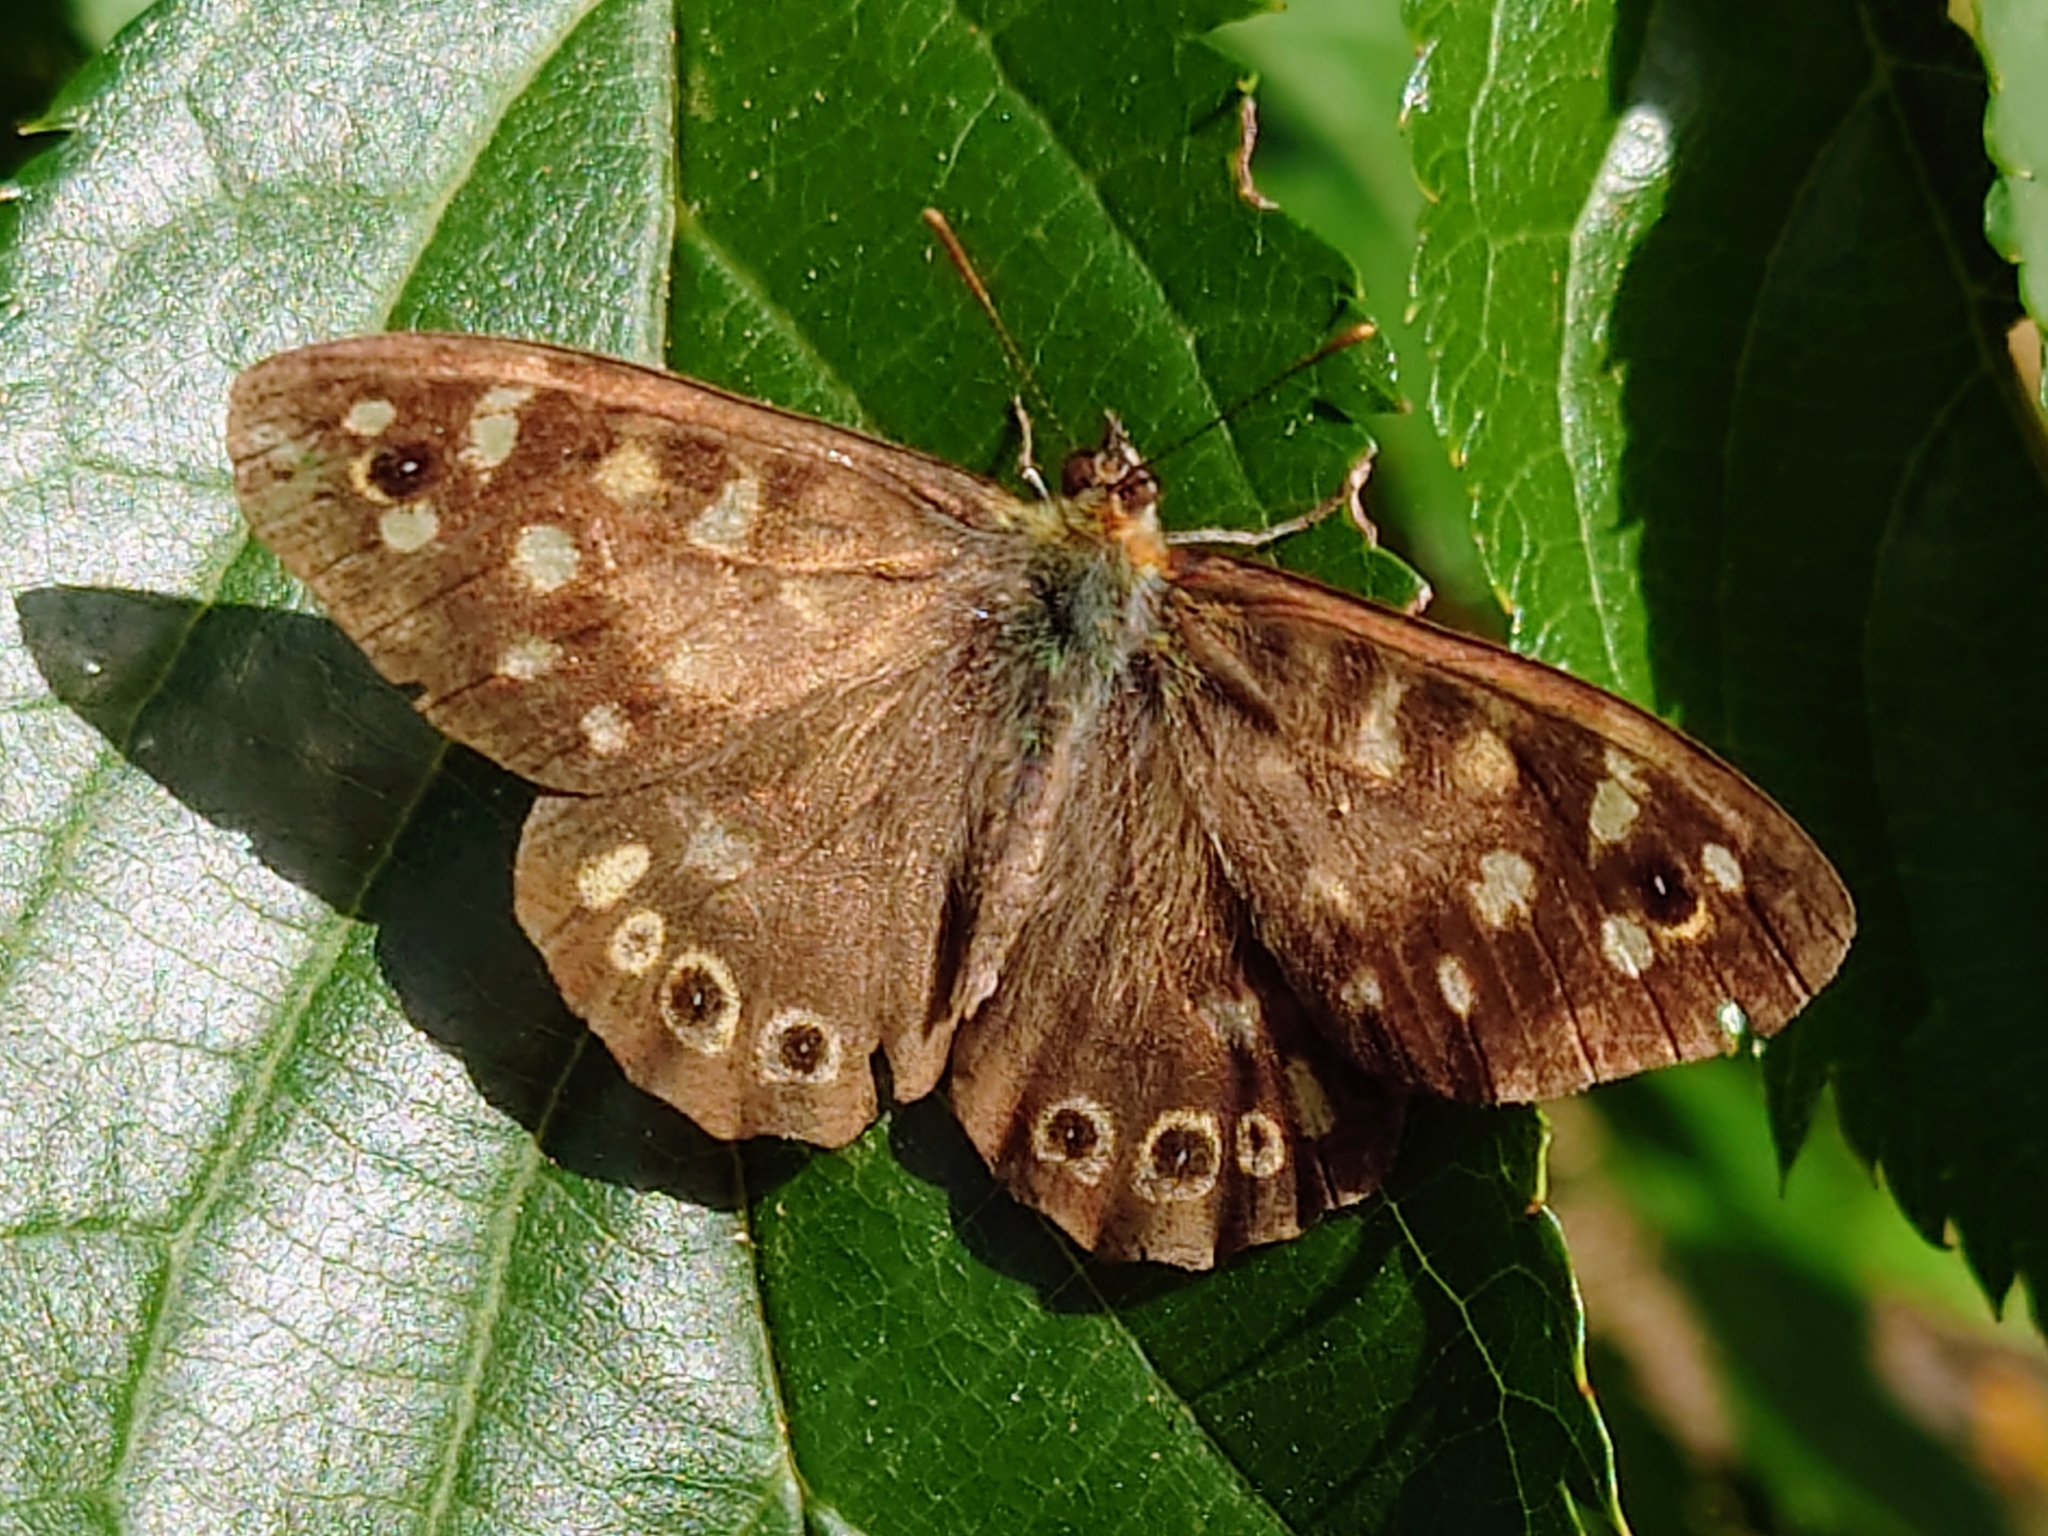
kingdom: Animalia
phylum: Arthropoda
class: Insecta
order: Lepidoptera
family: Nymphalidae
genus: Pararge
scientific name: Pararge aegeria
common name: Speckled wood
